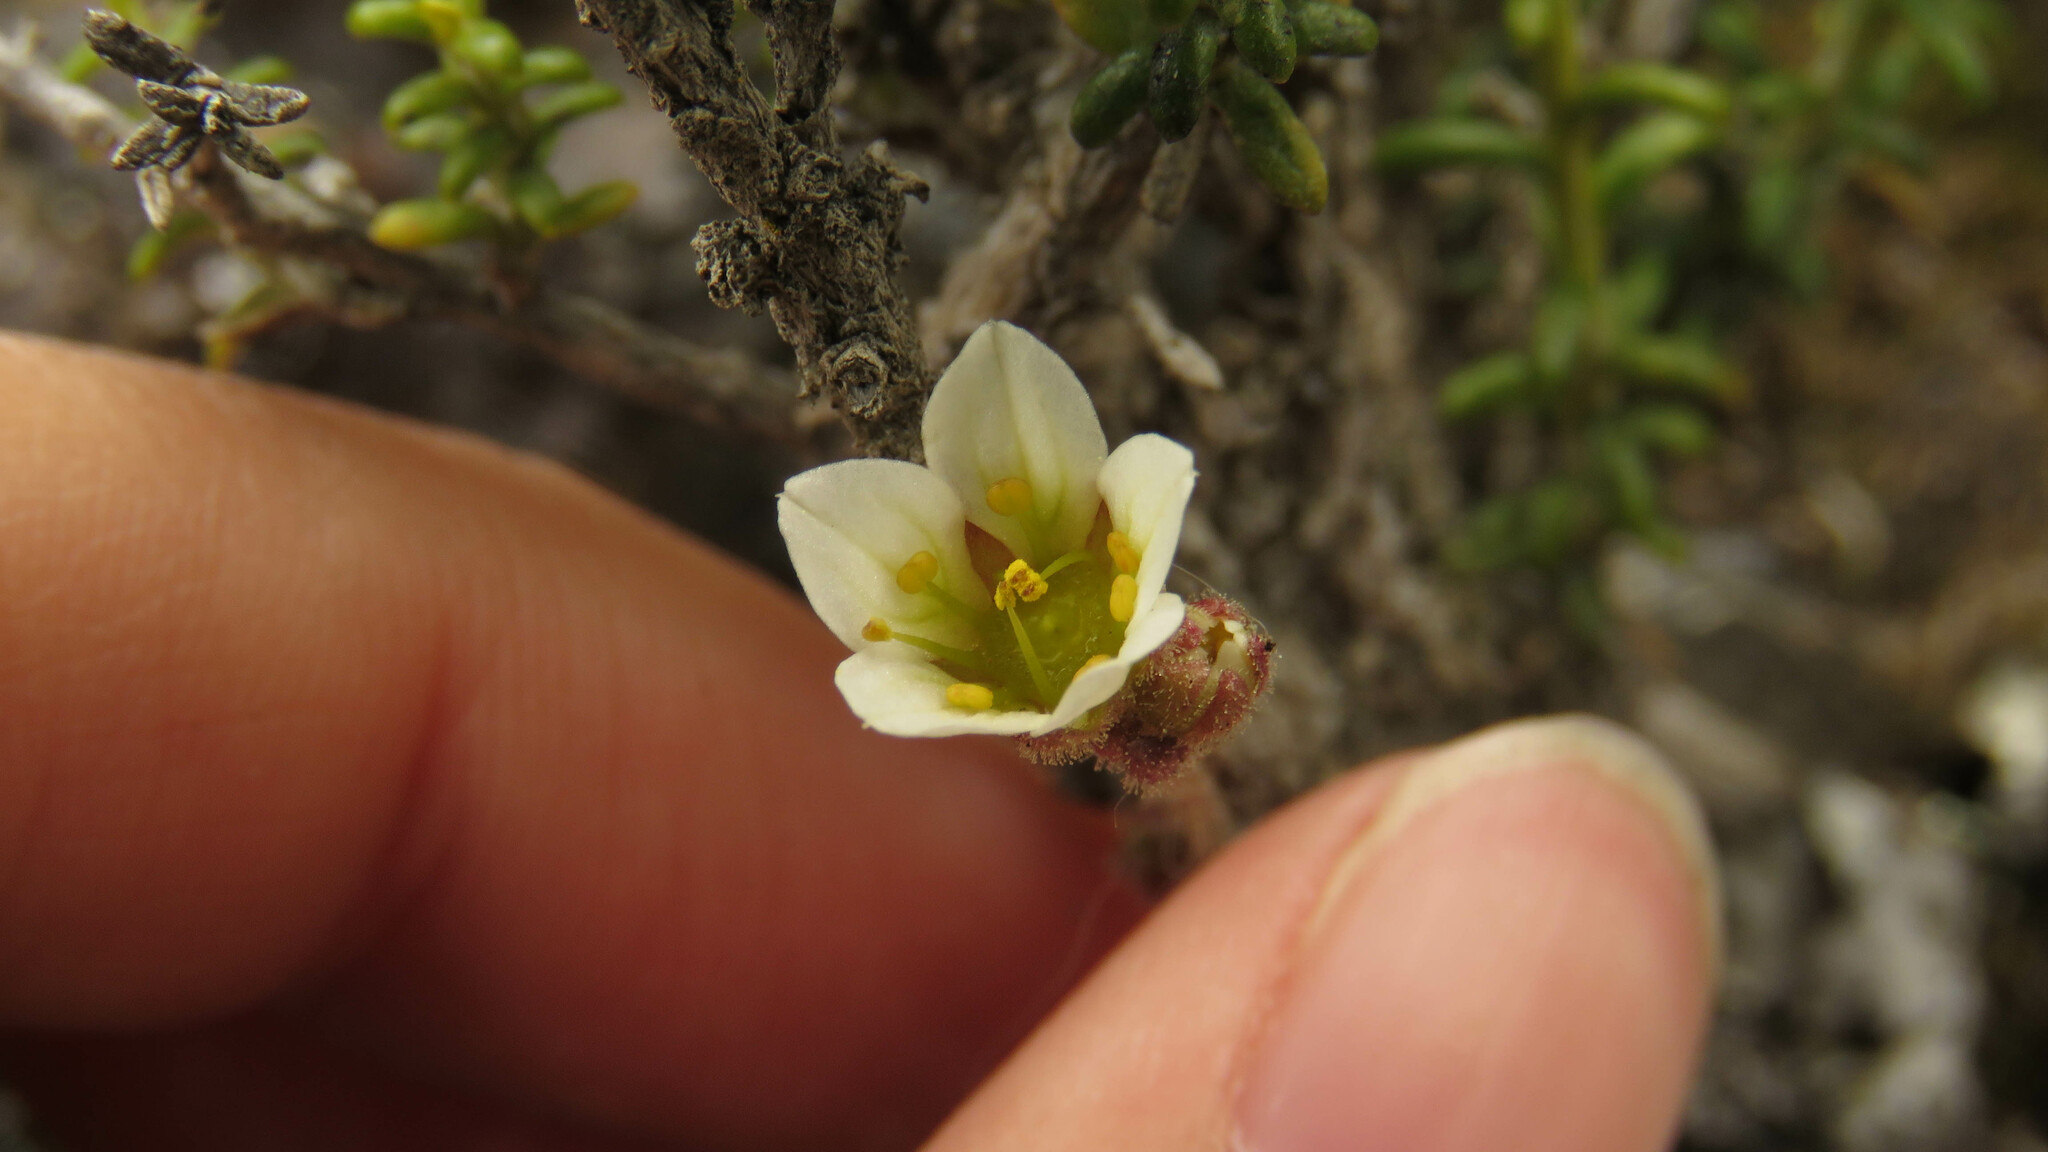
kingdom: Plantae
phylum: Tracheophyta
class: Magnoliopsida
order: Saxifragales
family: Saxifragaceae
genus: Saxifraga
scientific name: Saxifraga magellanica
